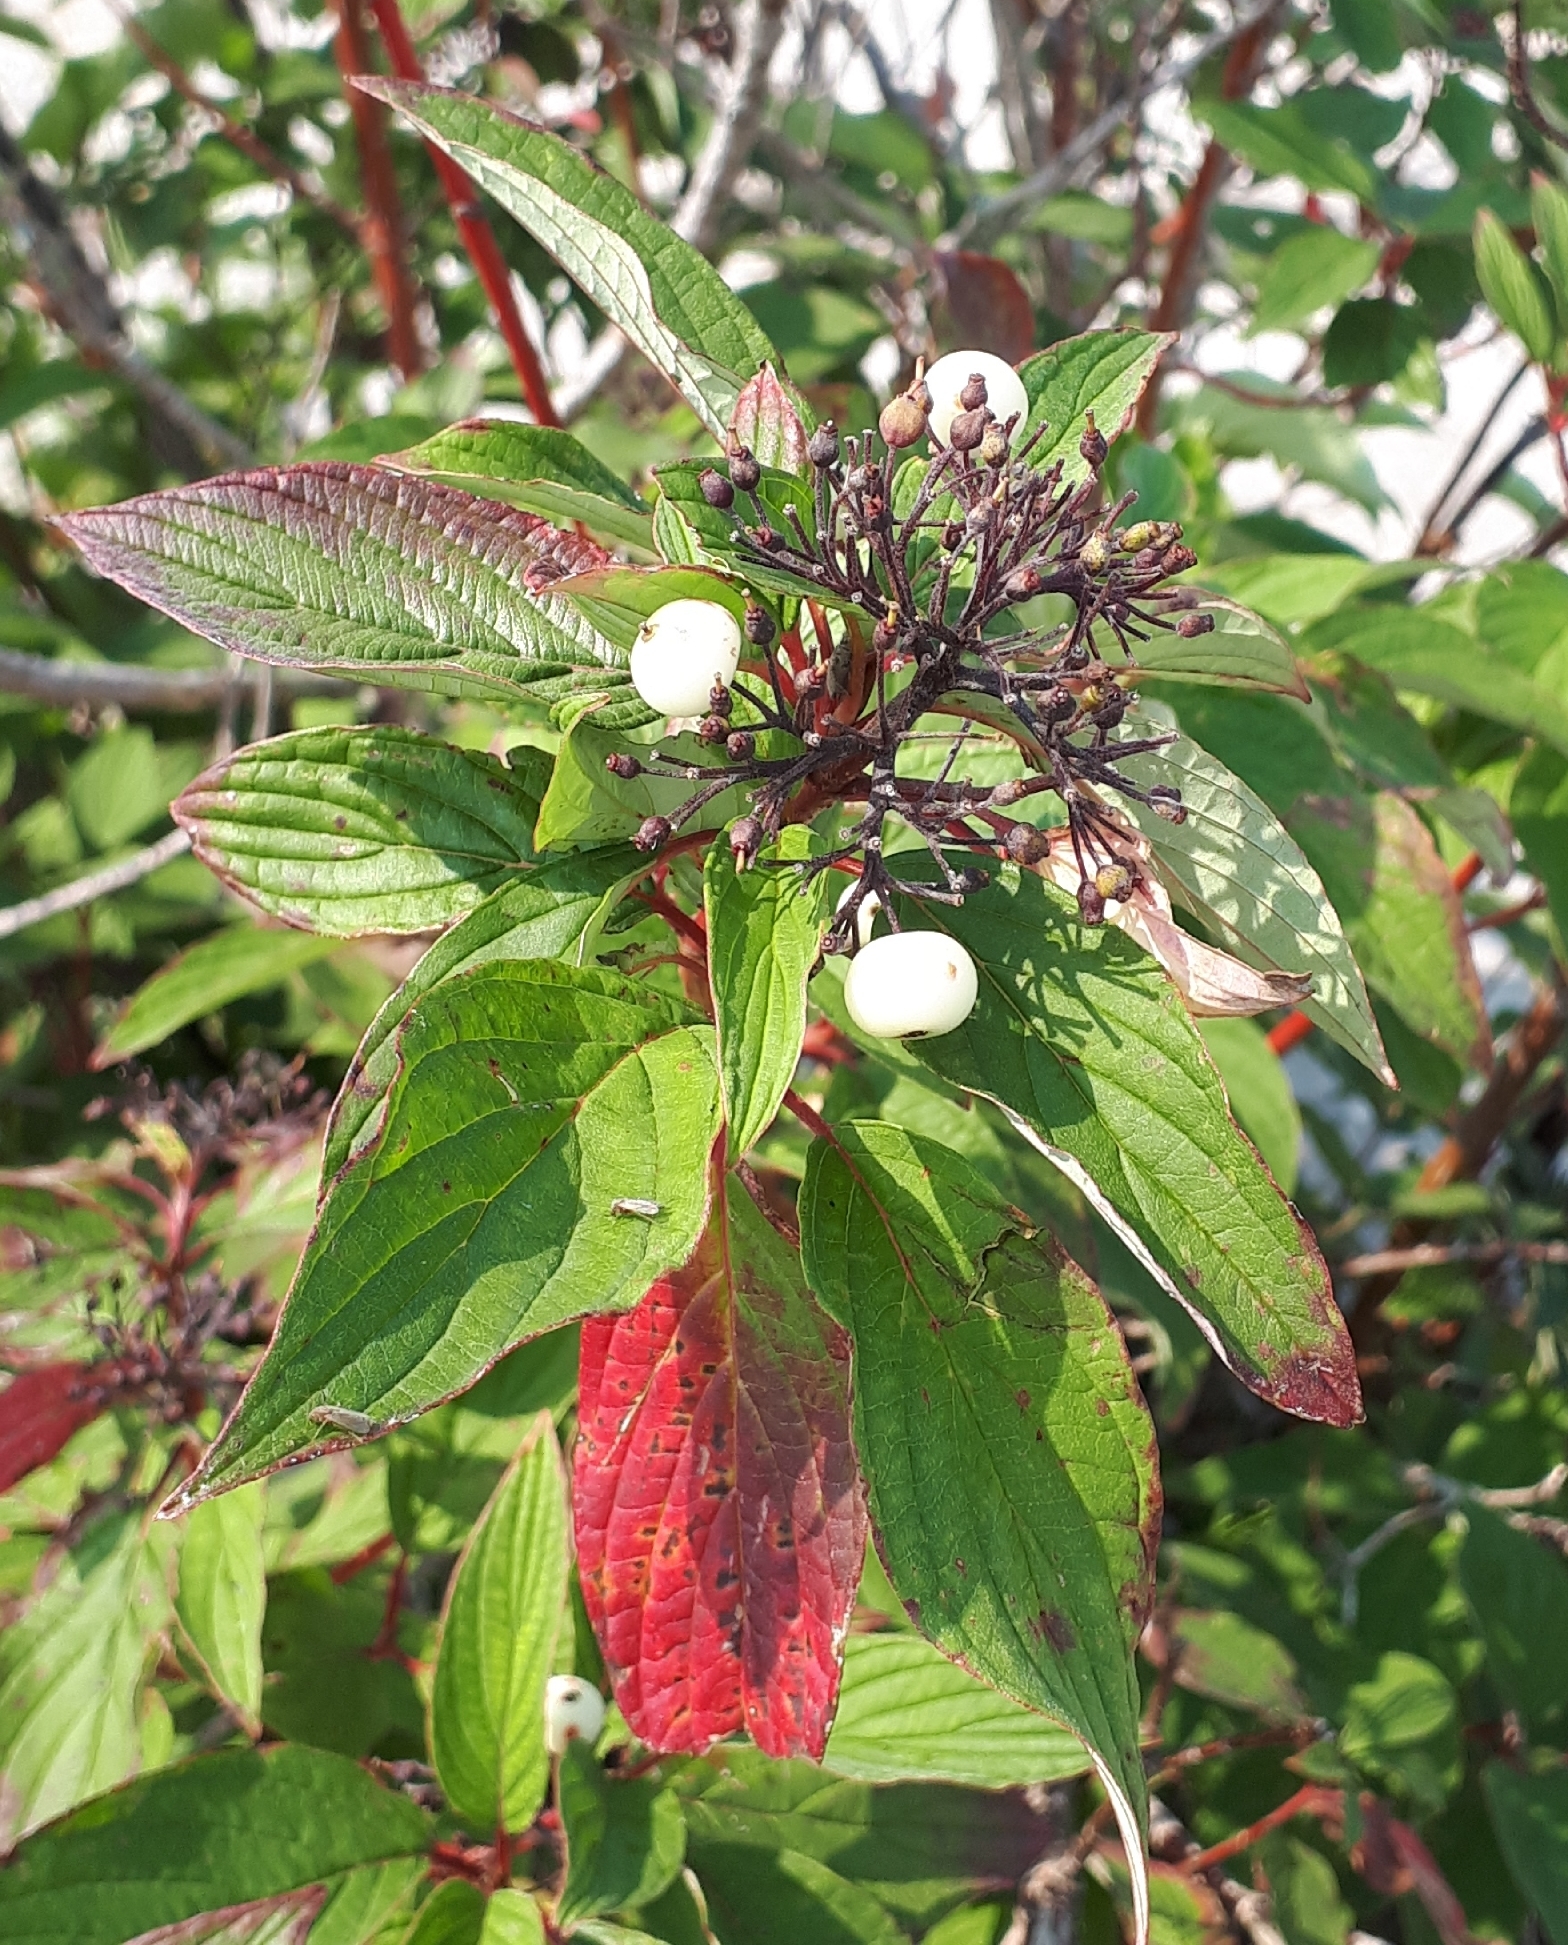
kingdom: Plantae
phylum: Tracheophyta
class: Magnoliopsida
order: Cornales
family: Cornaceae
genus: Cornus
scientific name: Cornus sericea
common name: Red-osier dogwood
